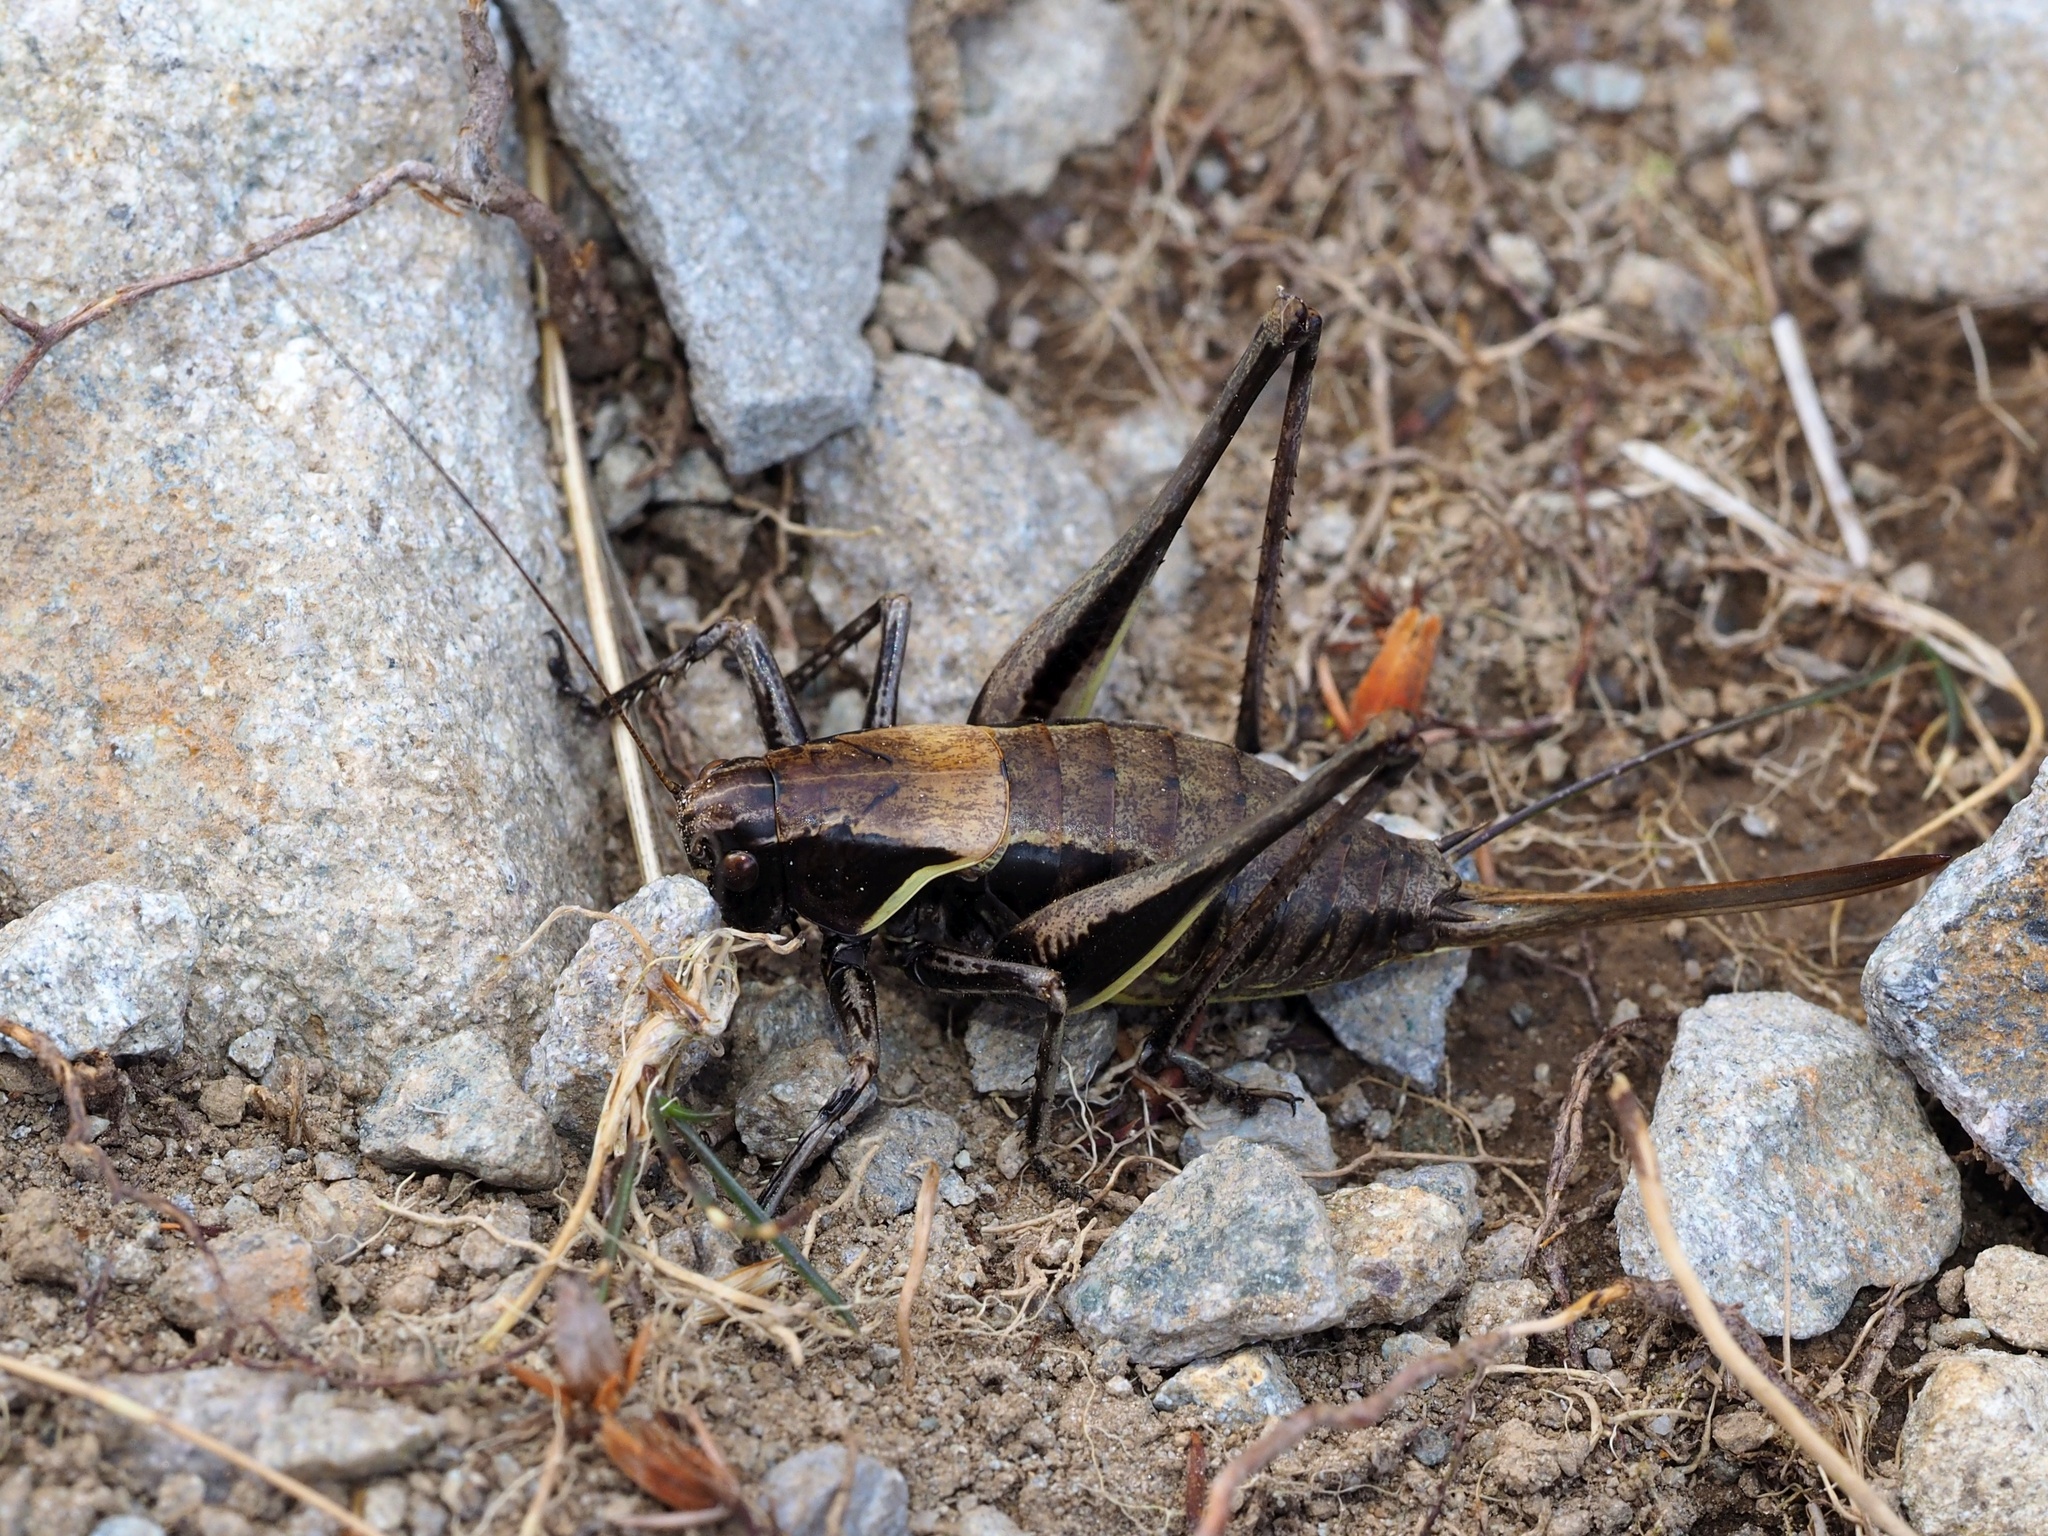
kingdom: Animalia
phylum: Arthropoda
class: Insecta
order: Orthoptera
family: Tettigoniidae
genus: Pholidoptera
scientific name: Pholidoptera aptera
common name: Alpine dark bush-cricket
